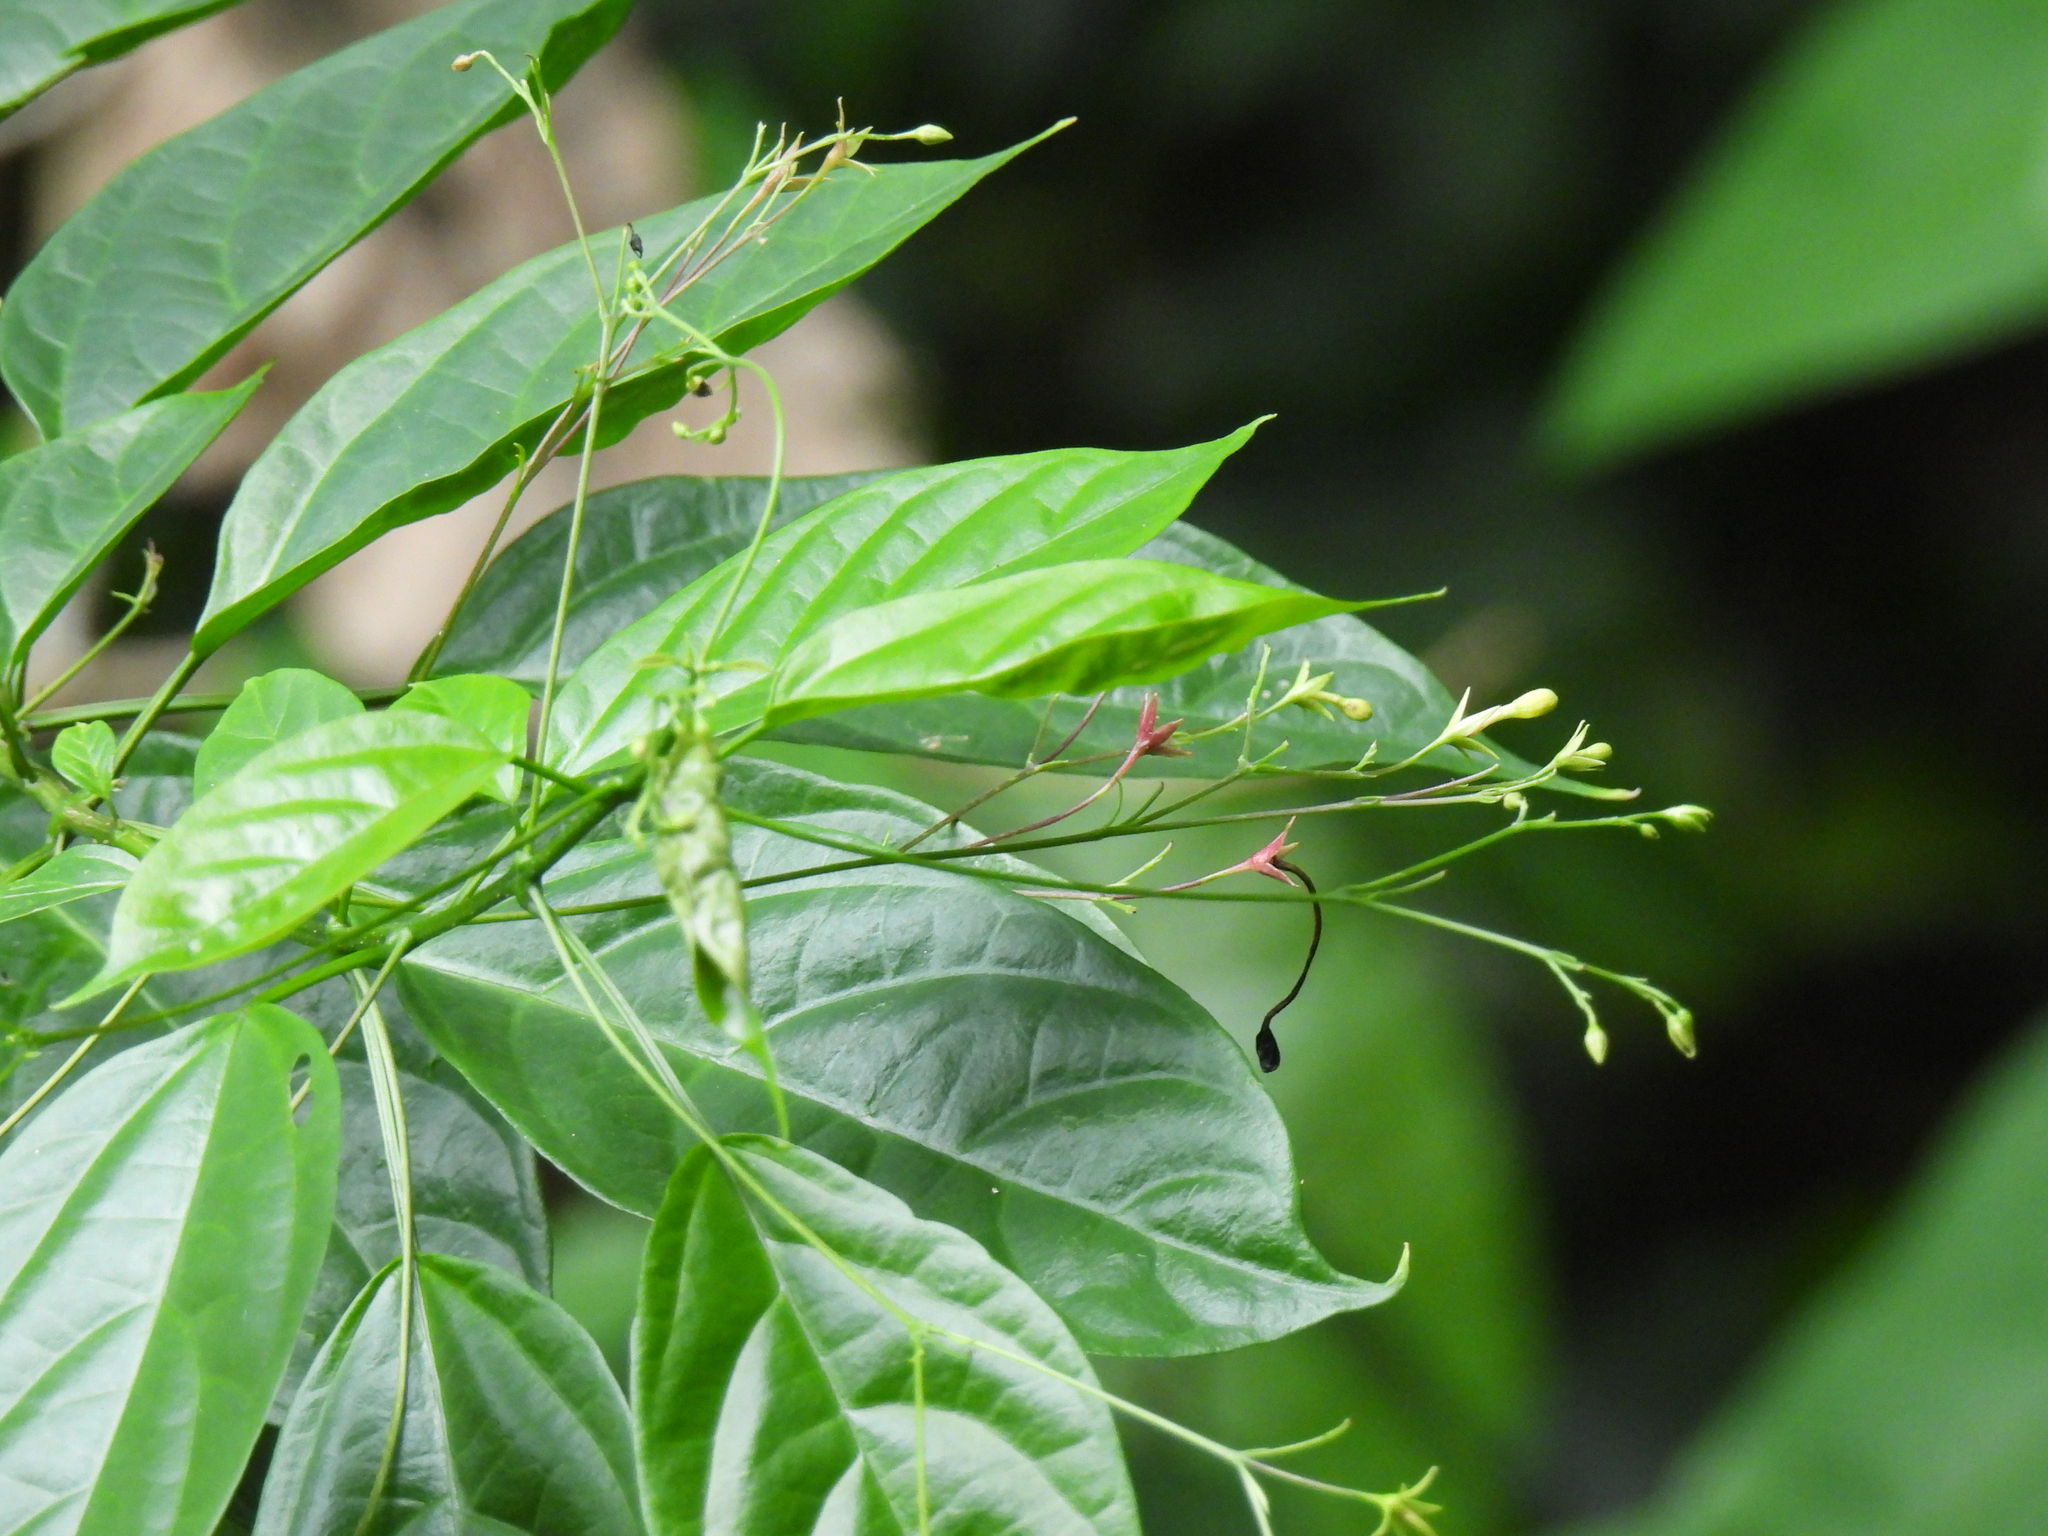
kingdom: Plantae
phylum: Tracheophyta
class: Magnoliopsida
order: Lamiales
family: Lamiaceae
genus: Clerodendrum
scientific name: Clerodendrum laevifolium
